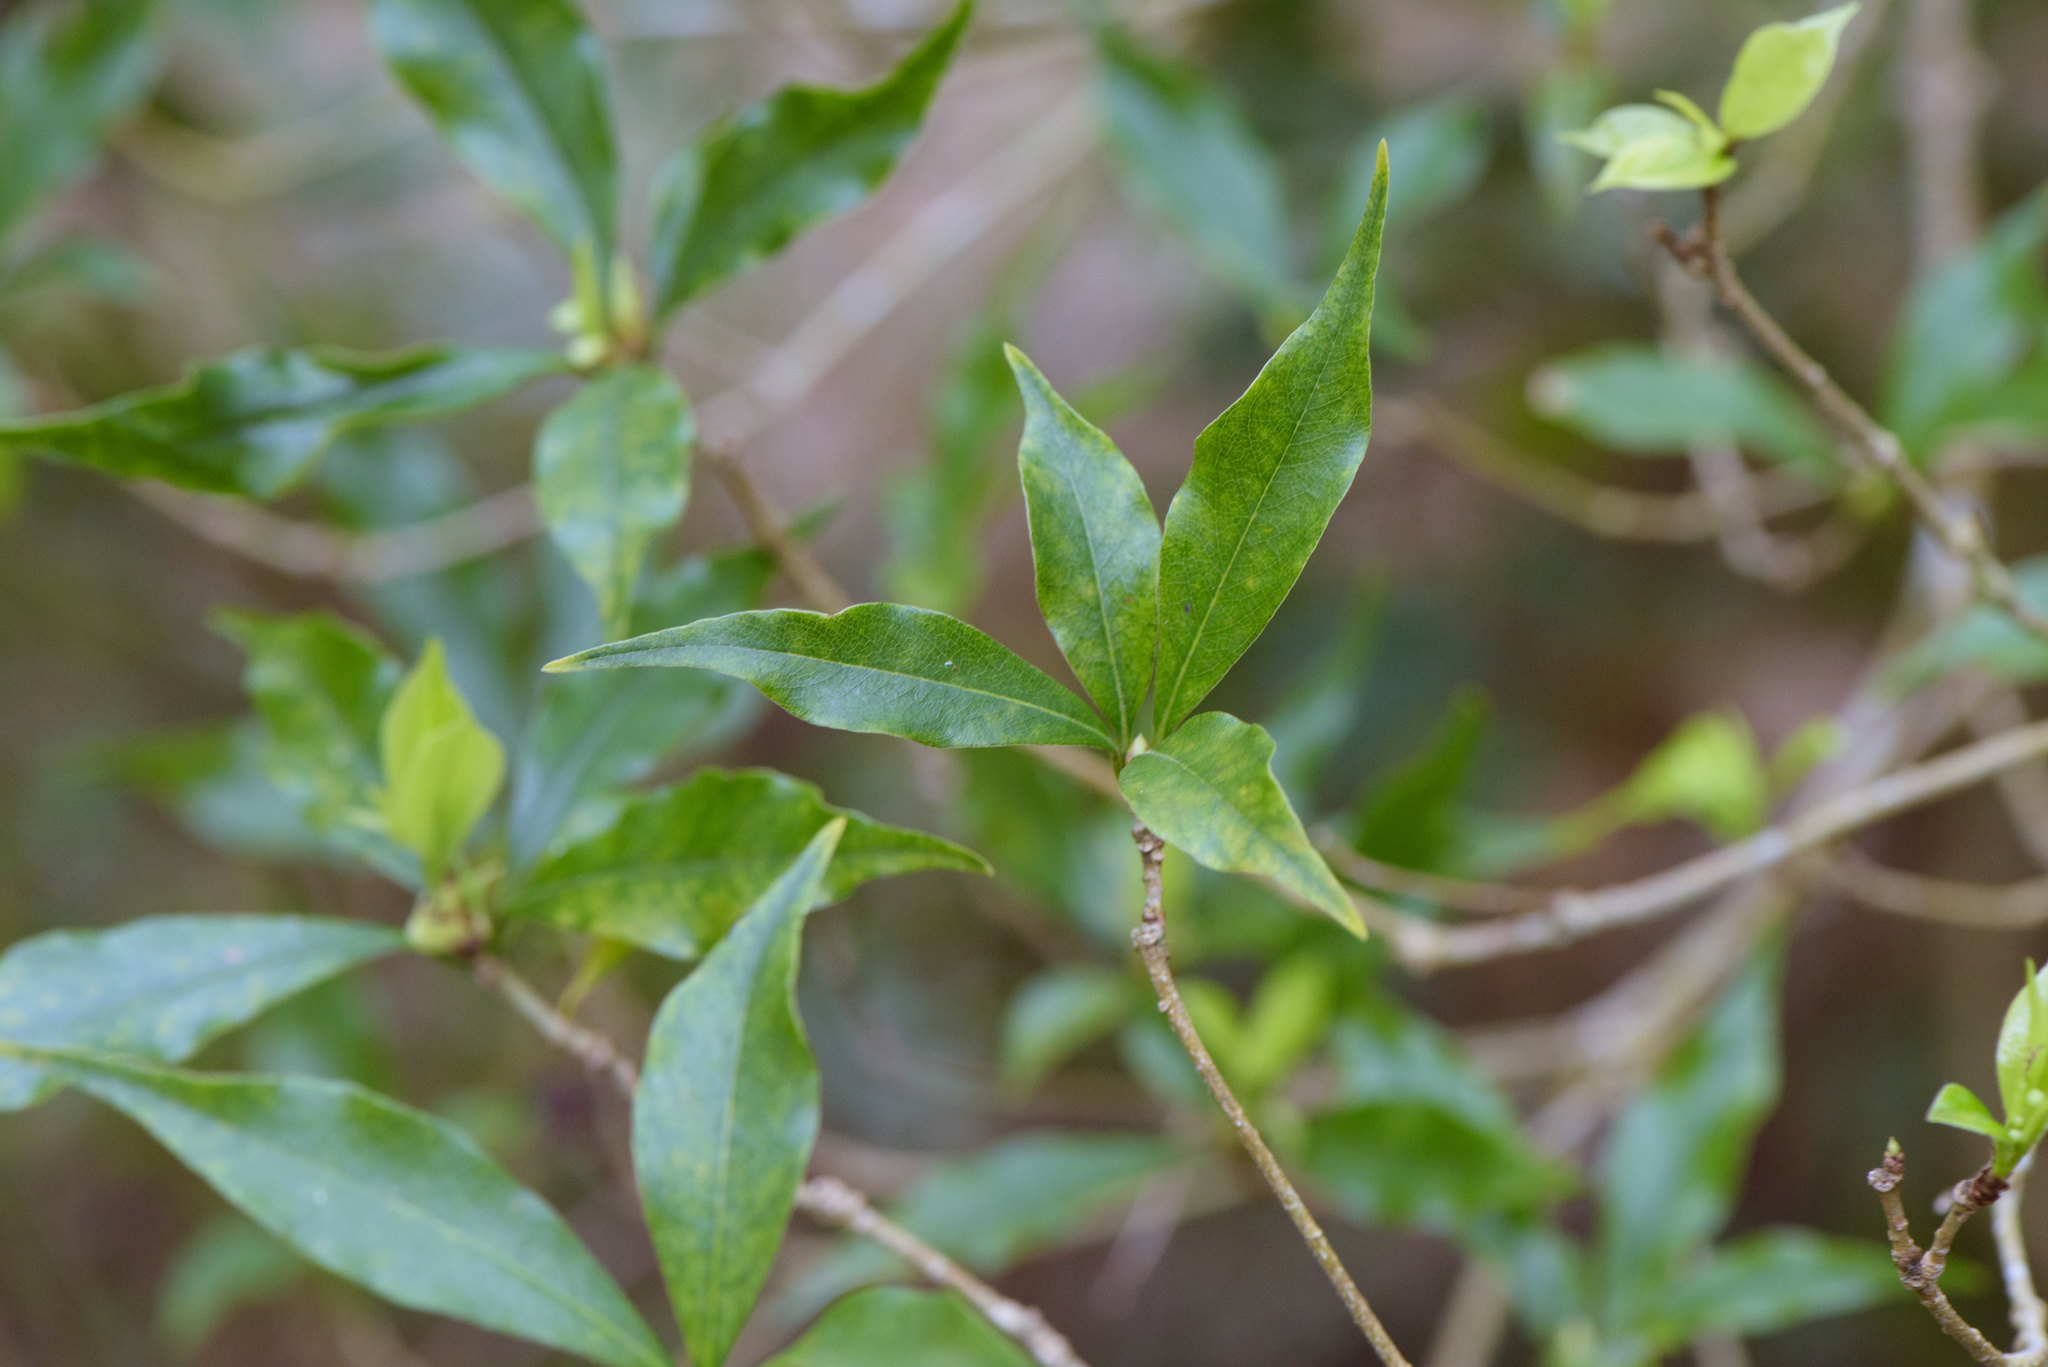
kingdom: Plantae
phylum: Tracheophyta
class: Magnoliopsida
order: Apiales
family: Pittosporaceae
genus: Pittosporum
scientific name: Pittosporum illicioides
